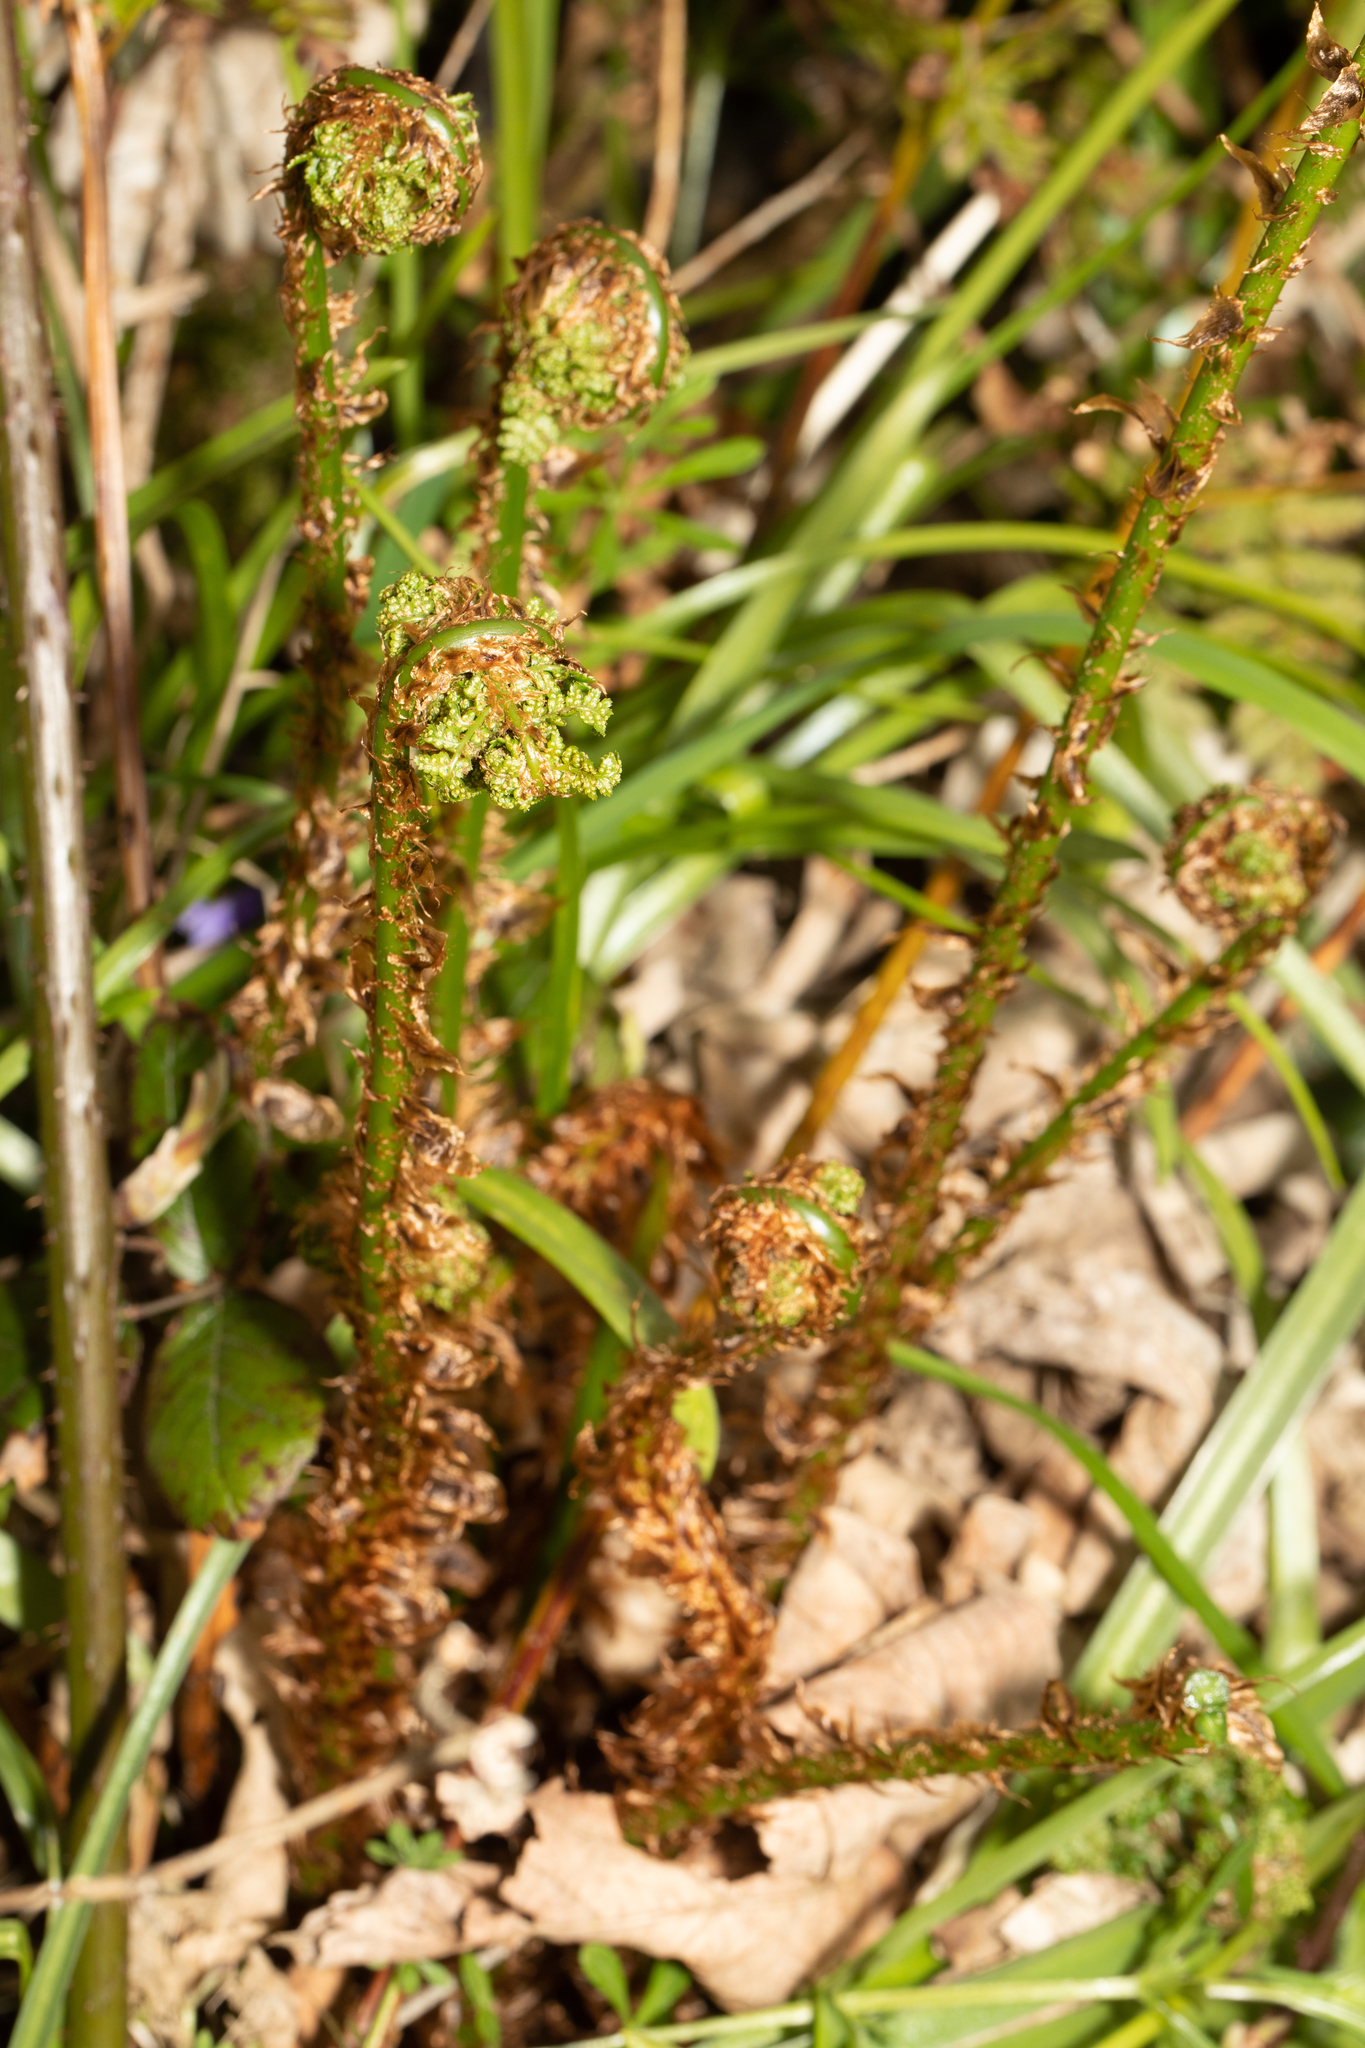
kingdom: Plantae
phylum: Tracheophyta
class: Polypodiopsida
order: Polypodiales
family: Dryopteridaceae
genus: Dryopteris
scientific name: Dryopteris dilatata
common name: Broad buckler-fern
